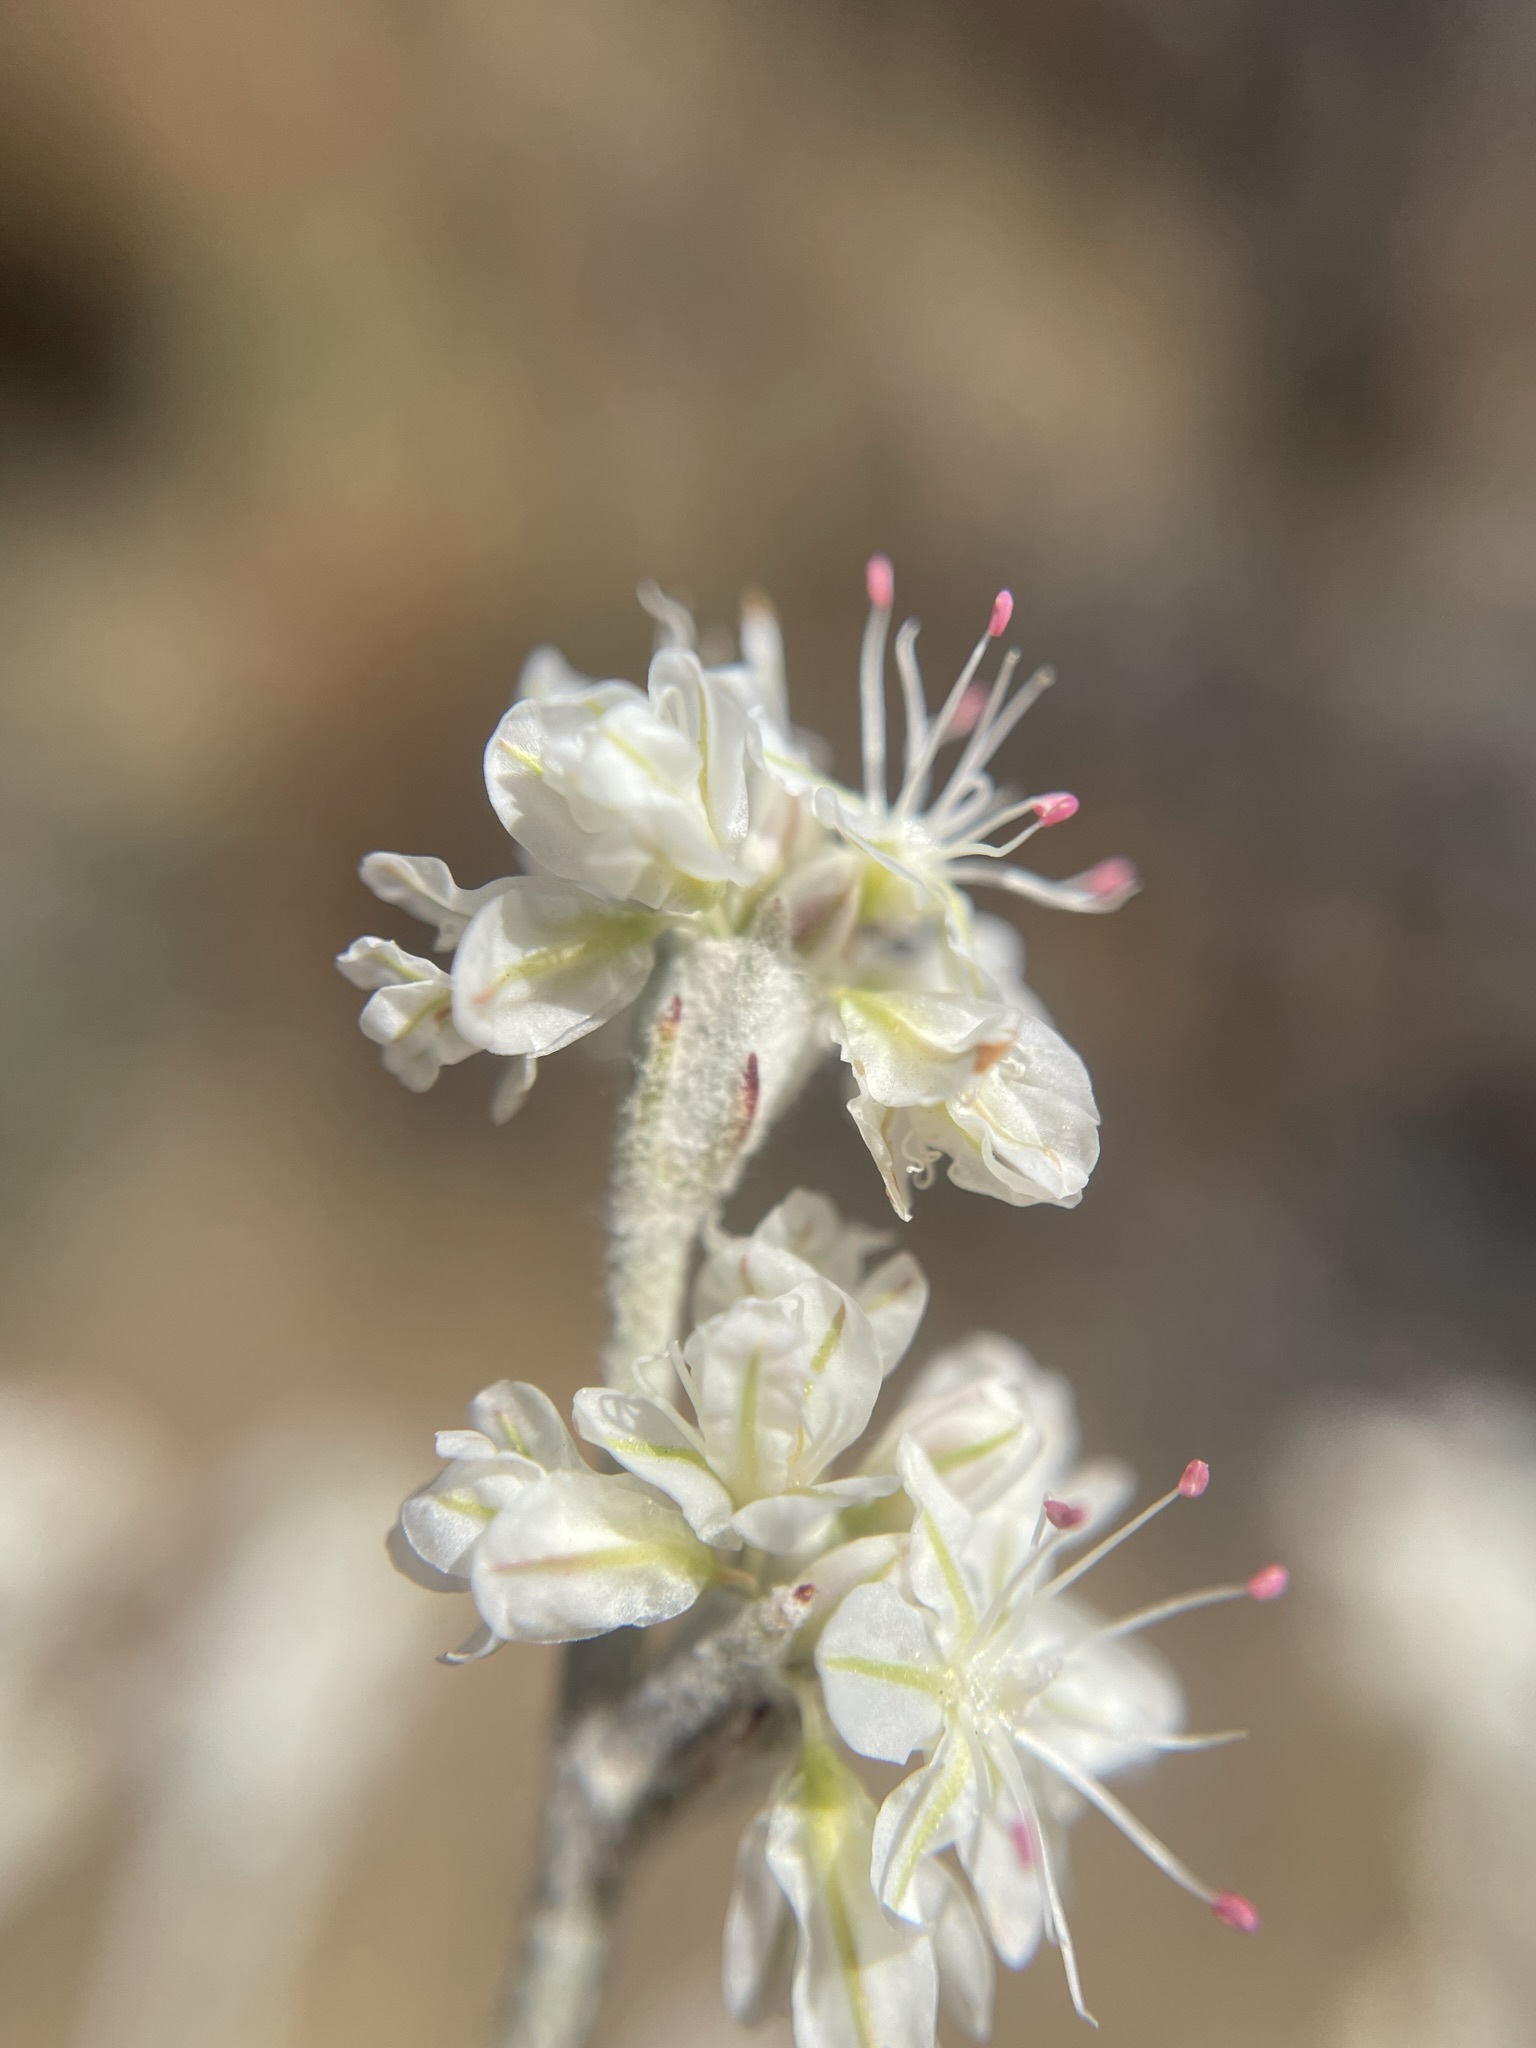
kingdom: Plantae
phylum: Tracheophyta
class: Magnoliopsida
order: Caryophyllales
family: Polygonaceae
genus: Eriogonum
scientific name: Eriogonum niveum
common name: Snow wild buckwheat
